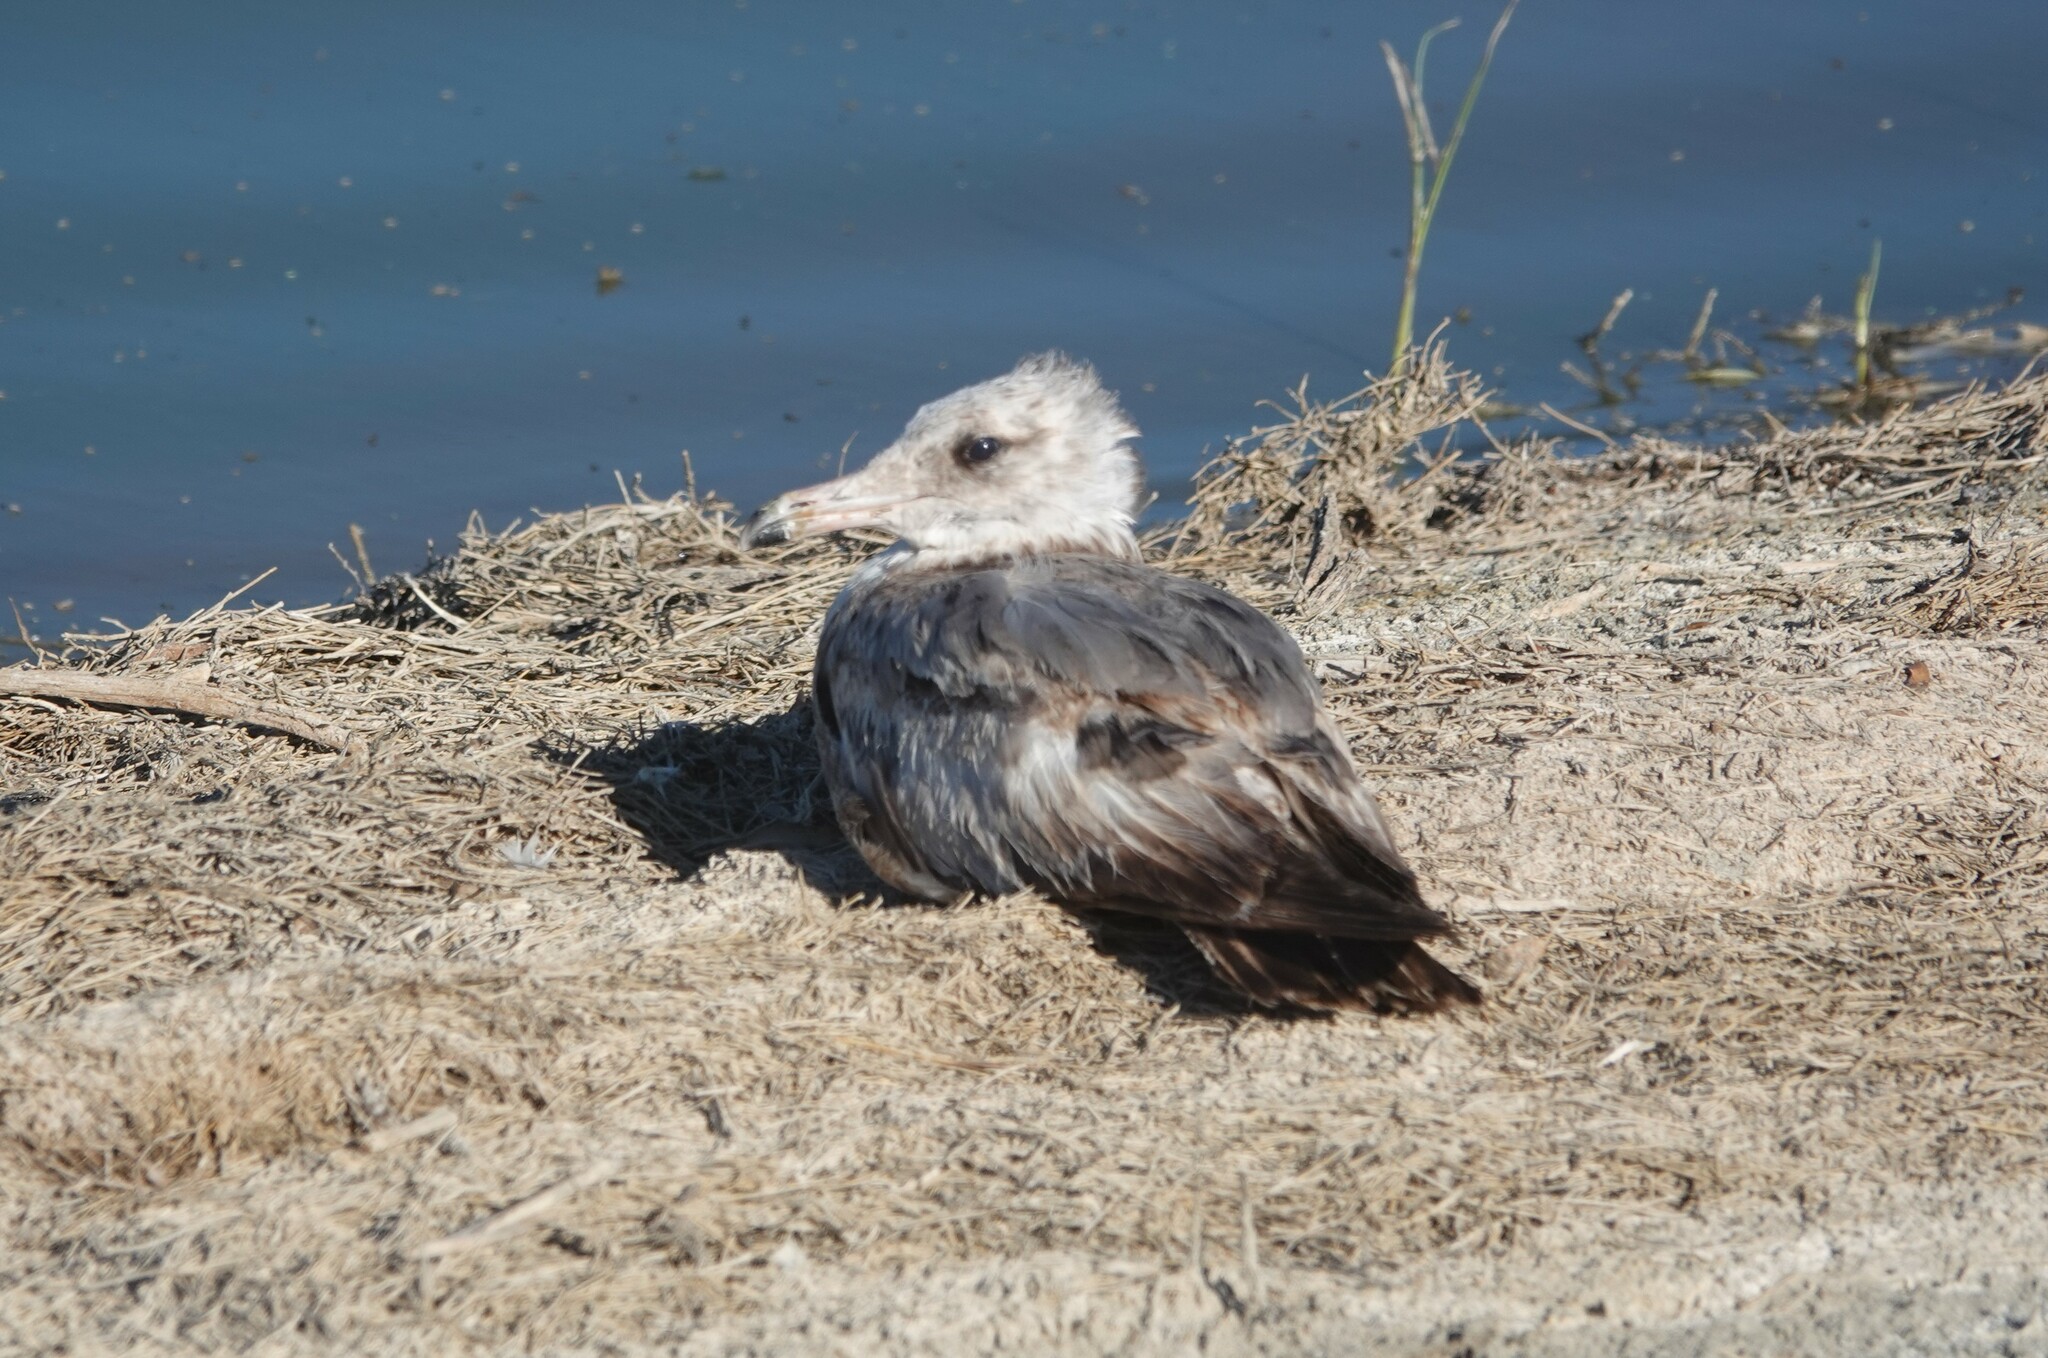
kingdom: Animalia
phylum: Chordata
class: Aves
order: Charadriiformes
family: Laridae
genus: Larus
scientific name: Larus californicus
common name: California gull
